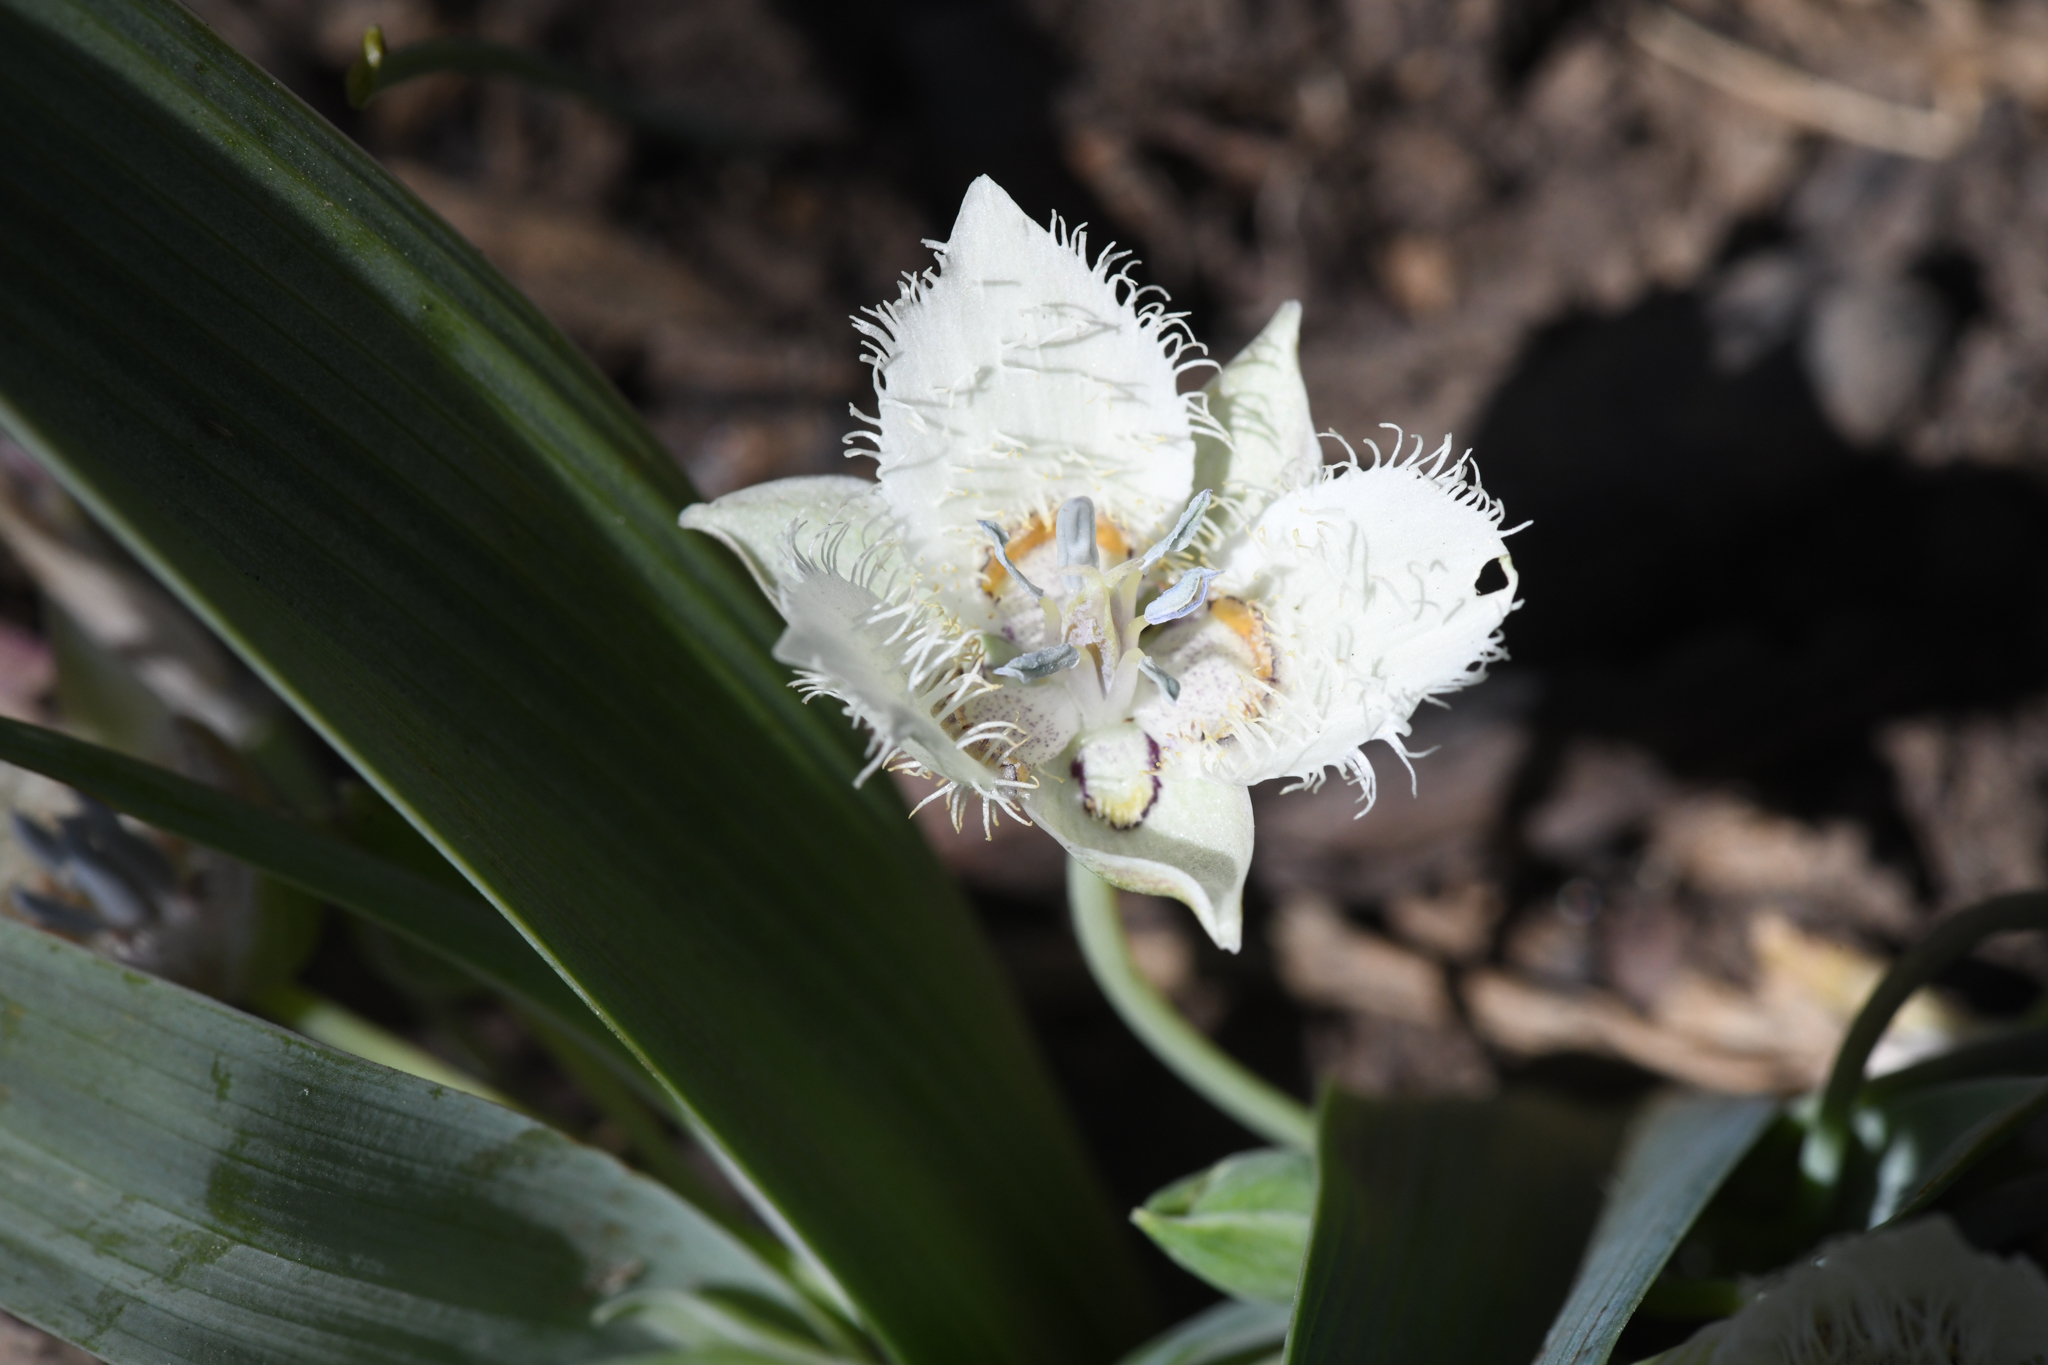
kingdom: Plantae
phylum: Tracheophyta
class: Liliopsida
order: Liliales
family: Liliaceae
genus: Calochortus
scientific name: Calochortus westonii
